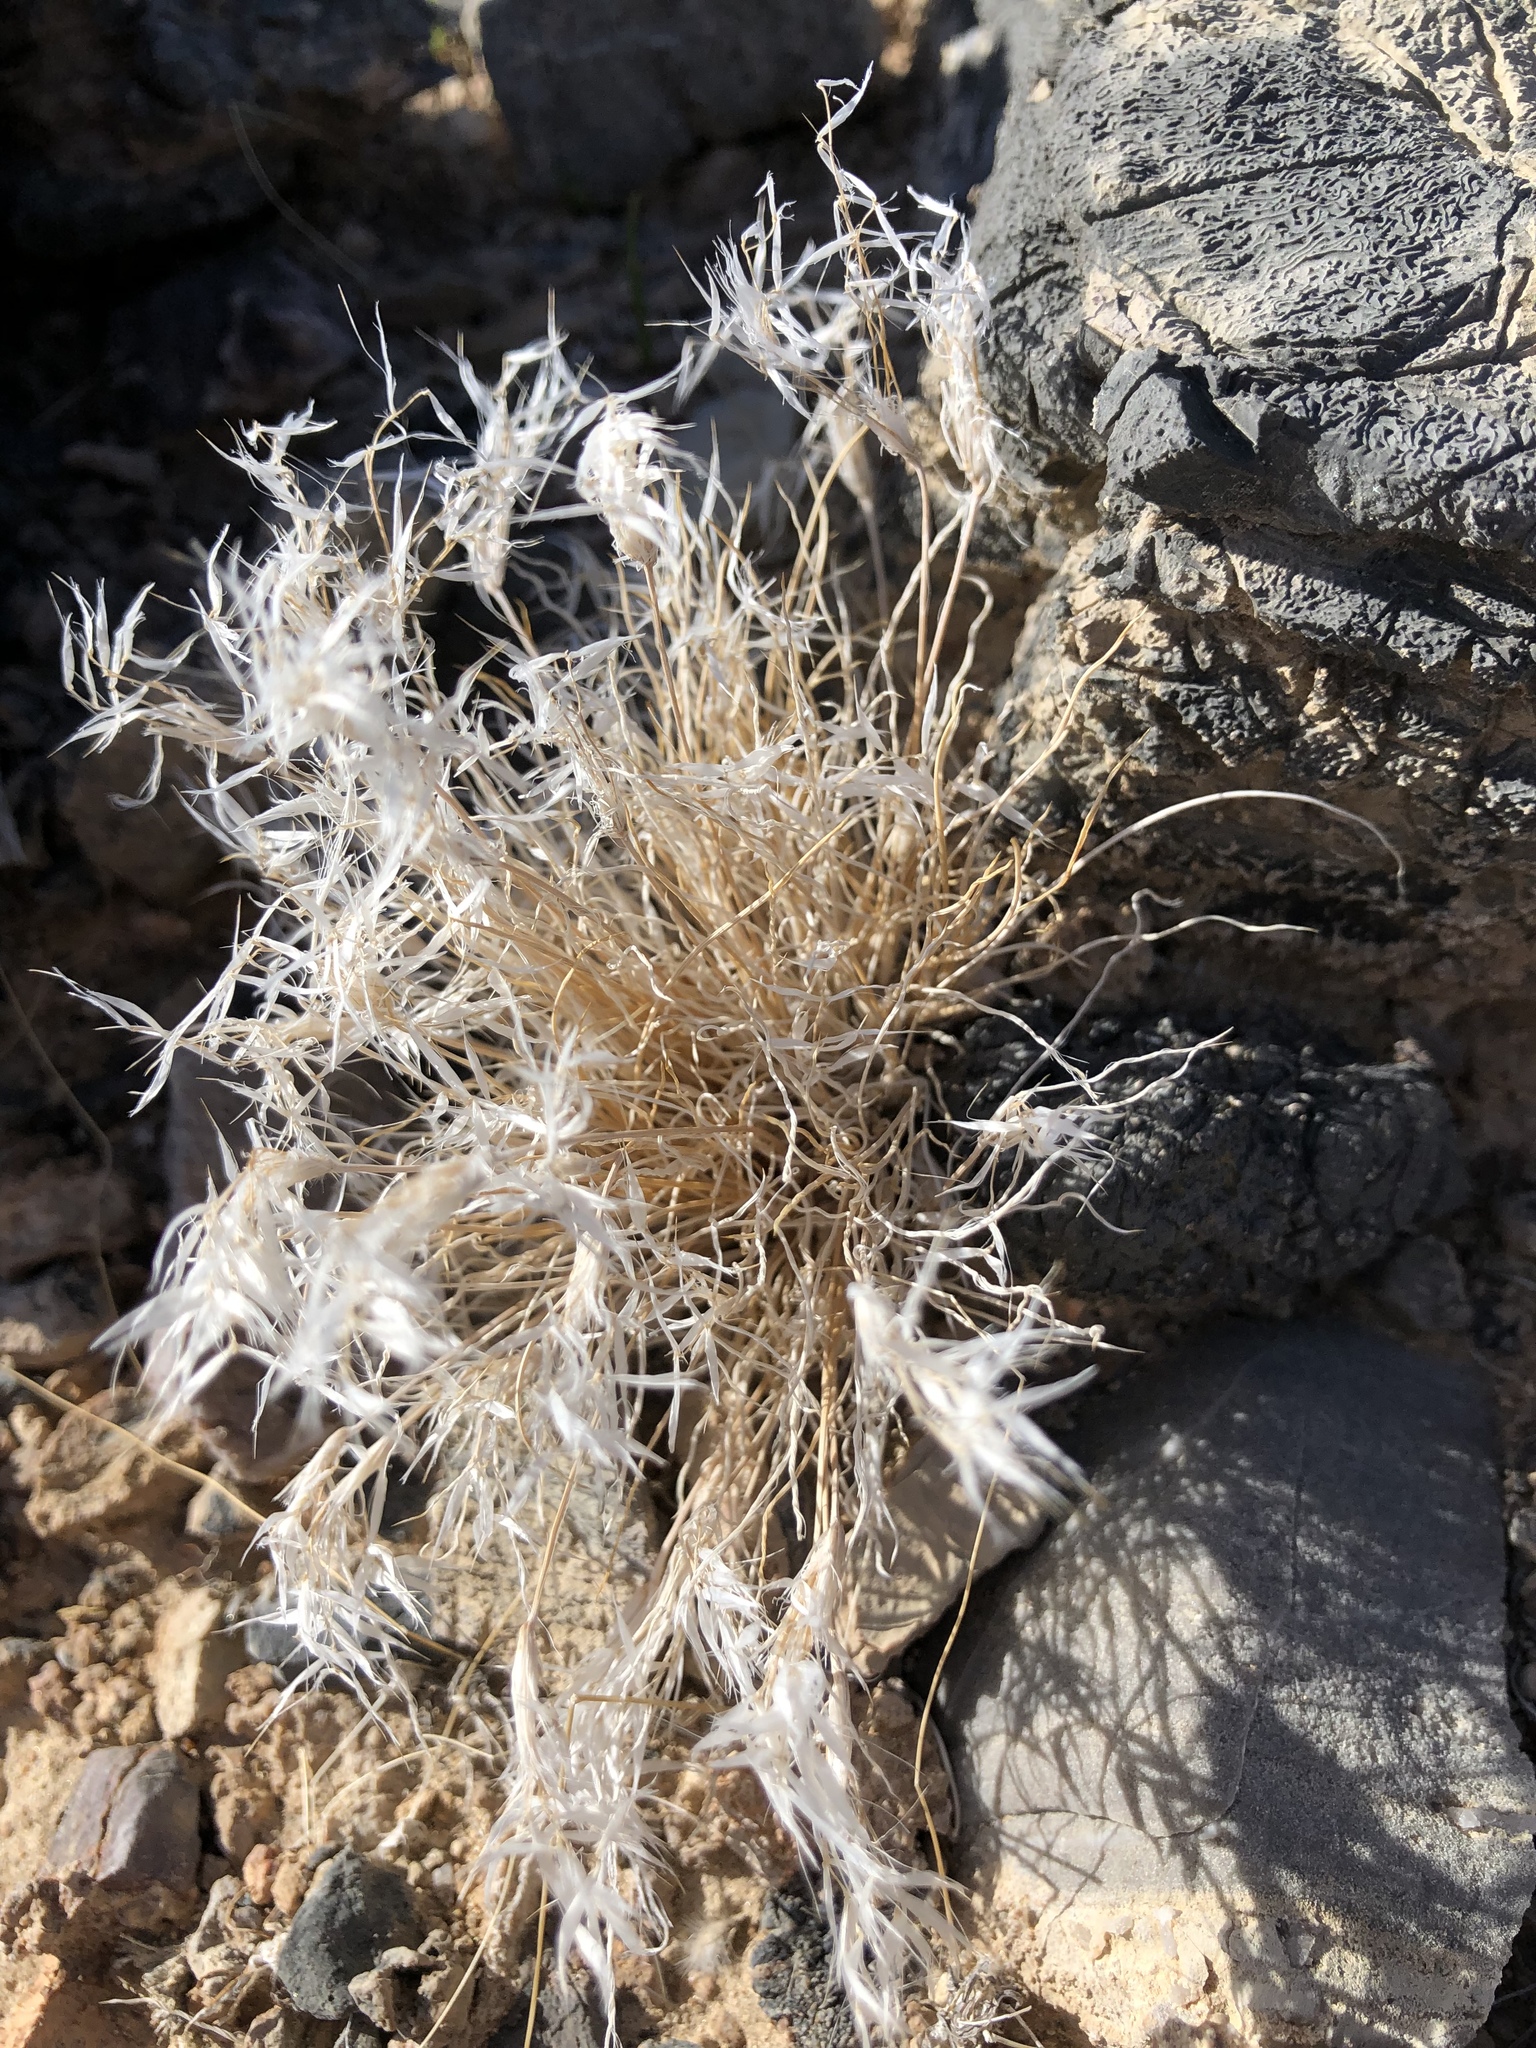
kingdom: Plantae
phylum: Tracheophyta
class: Liliopsida
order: Poales
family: Poaceae
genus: Dasyochloa
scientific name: Dasyochloa pulchella
